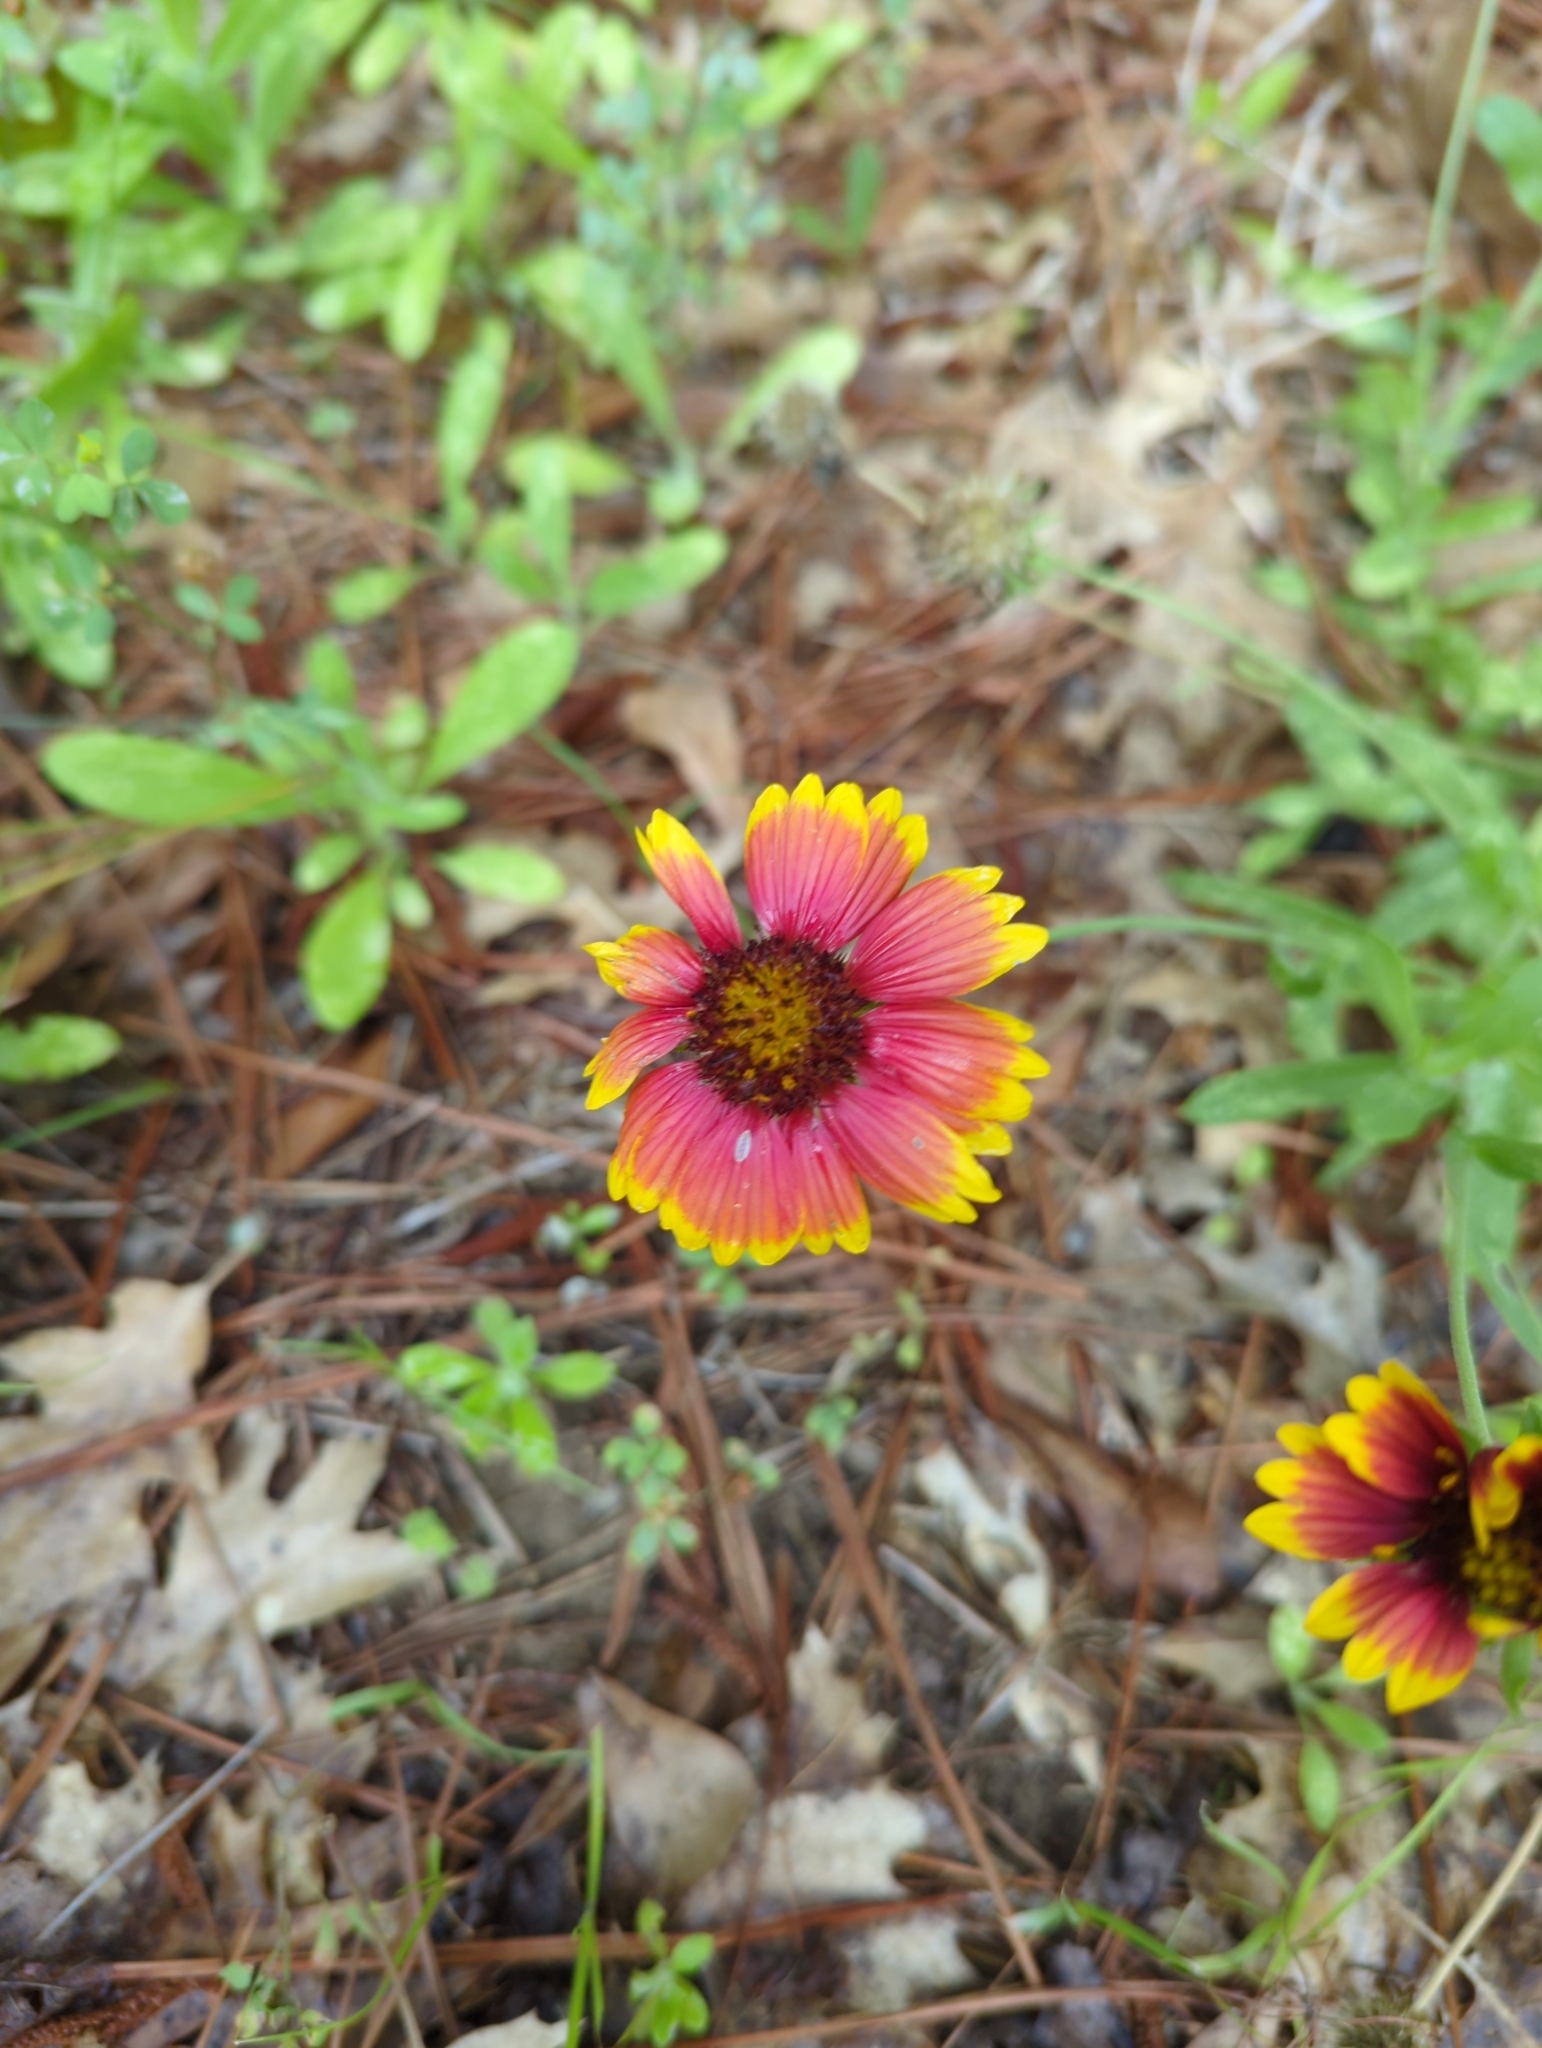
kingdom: Plantae
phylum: Tracheophyta
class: Magnoliopsida
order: Asterales
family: Asteraceae
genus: Gaillardia
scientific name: Gaillardia pulchella
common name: Firewheel
